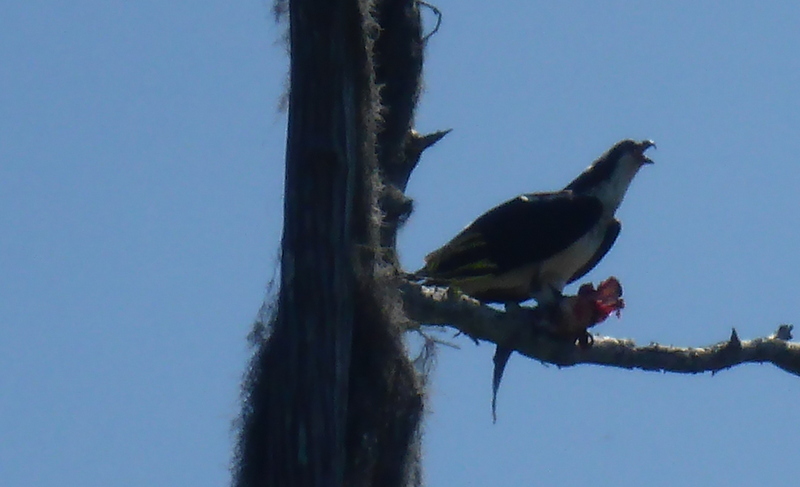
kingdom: Animalia
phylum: Chordata
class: Aves
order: Accipitriformes
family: Pandionidae
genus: Pandion
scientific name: Pandion haliaetus
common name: Osprey
